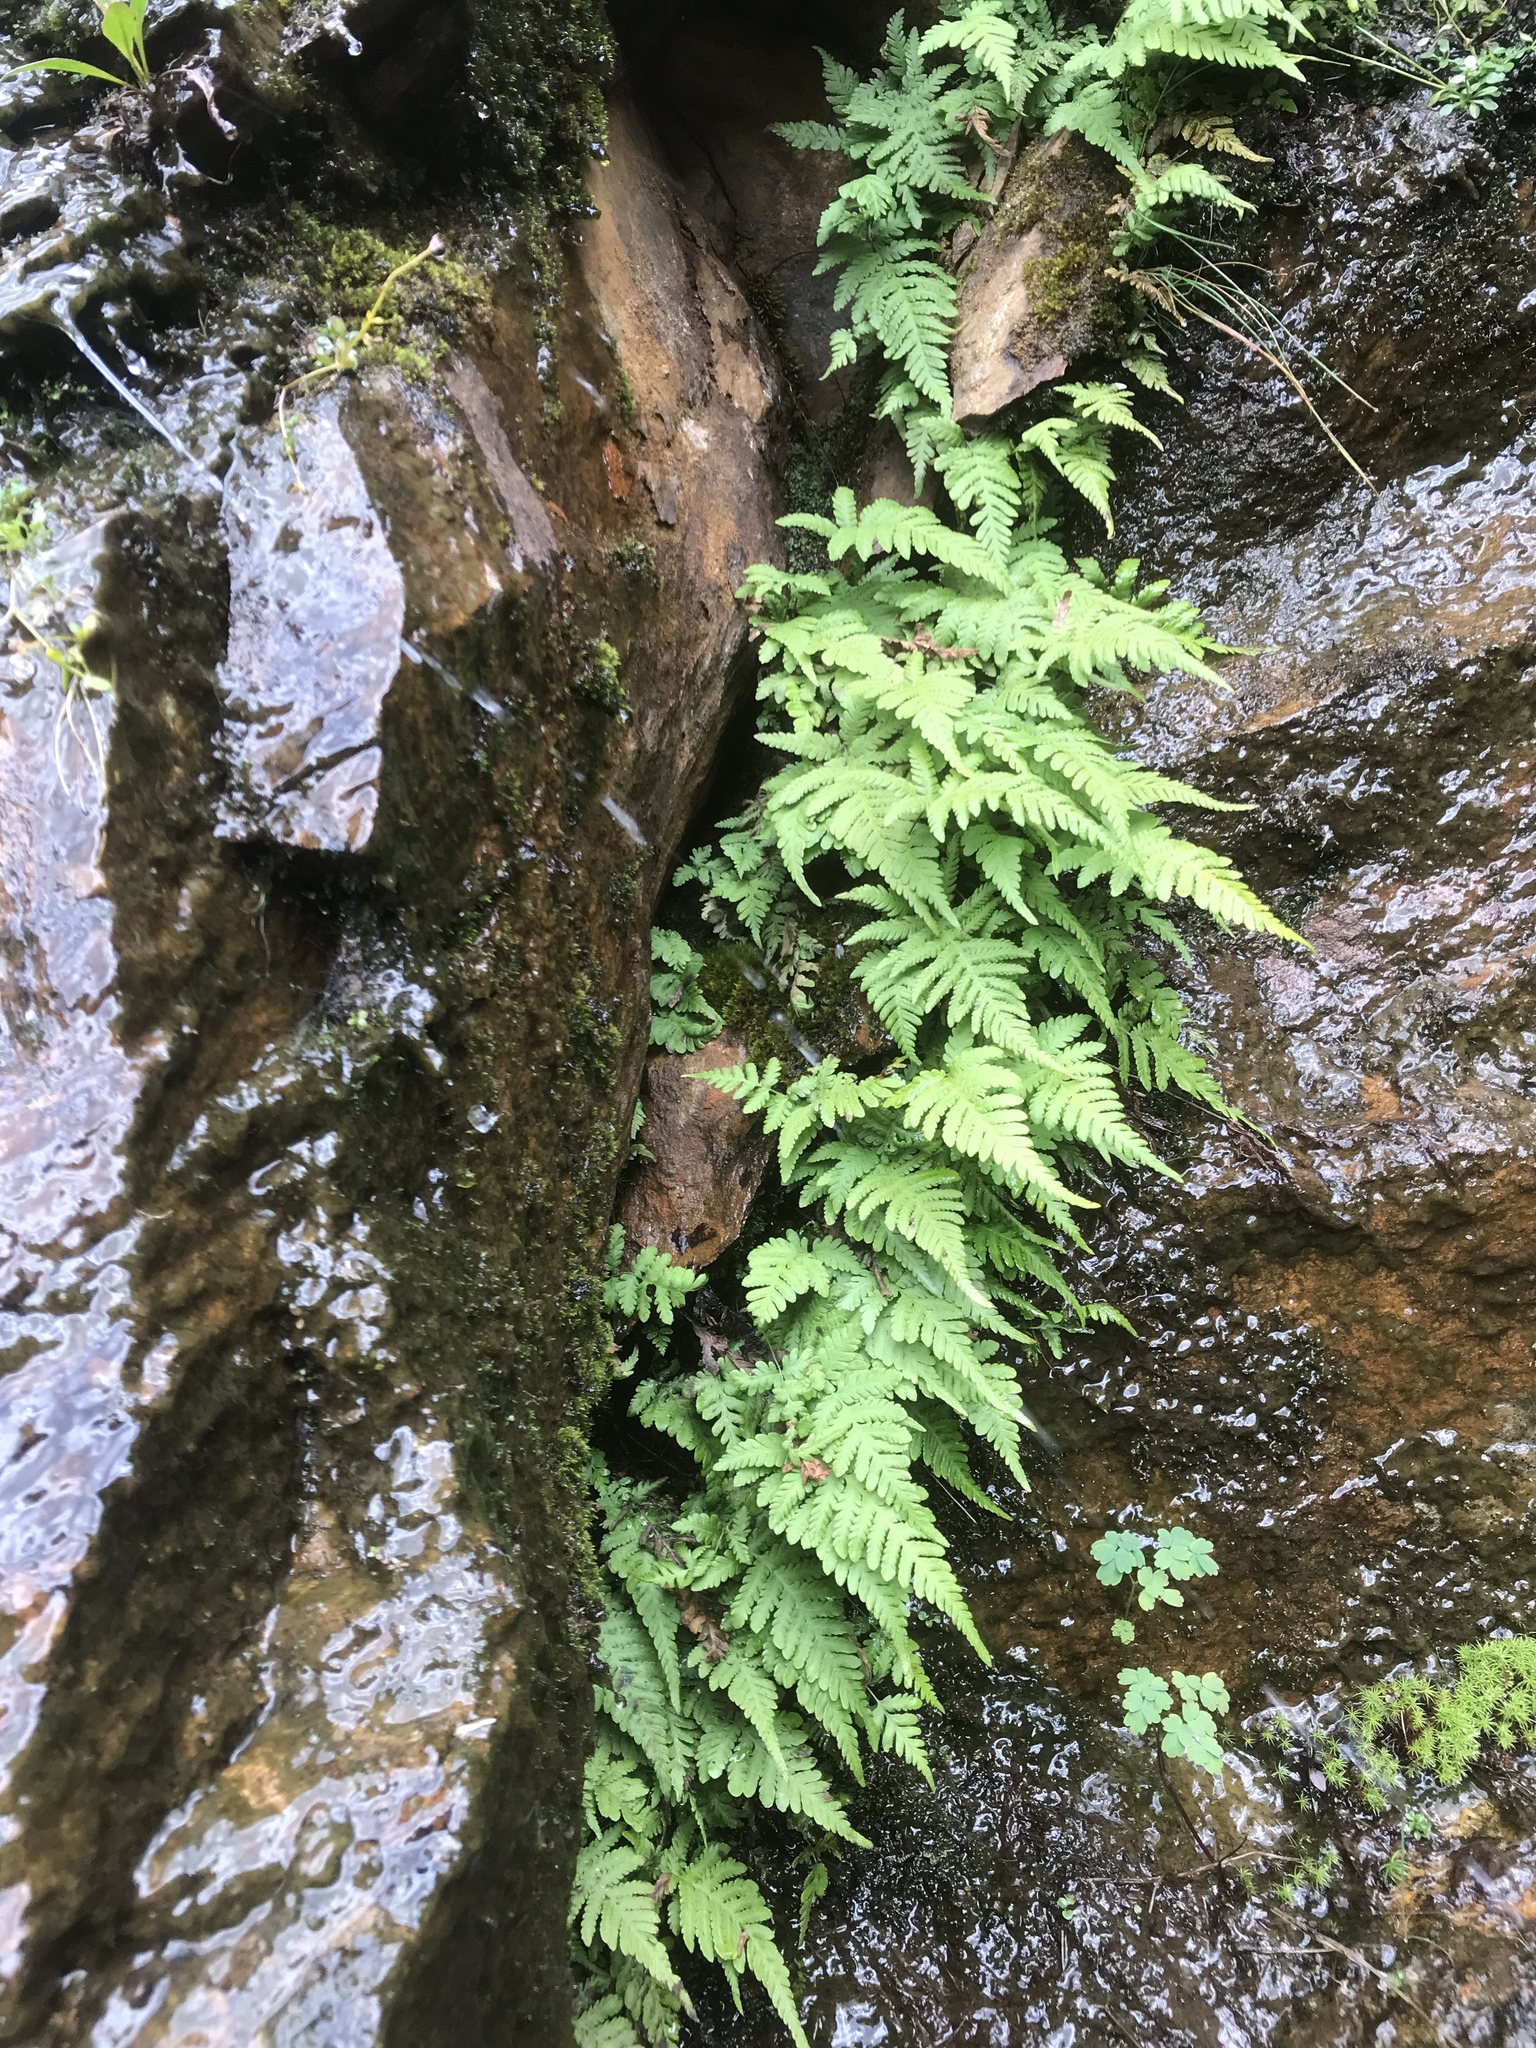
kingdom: Plantae
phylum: Tracheophyta
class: Polypodiopsida
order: Polypodiales
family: Thelypteridaceae
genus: Phegopteris
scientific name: Phegopteris connectilis
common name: Beech fern
